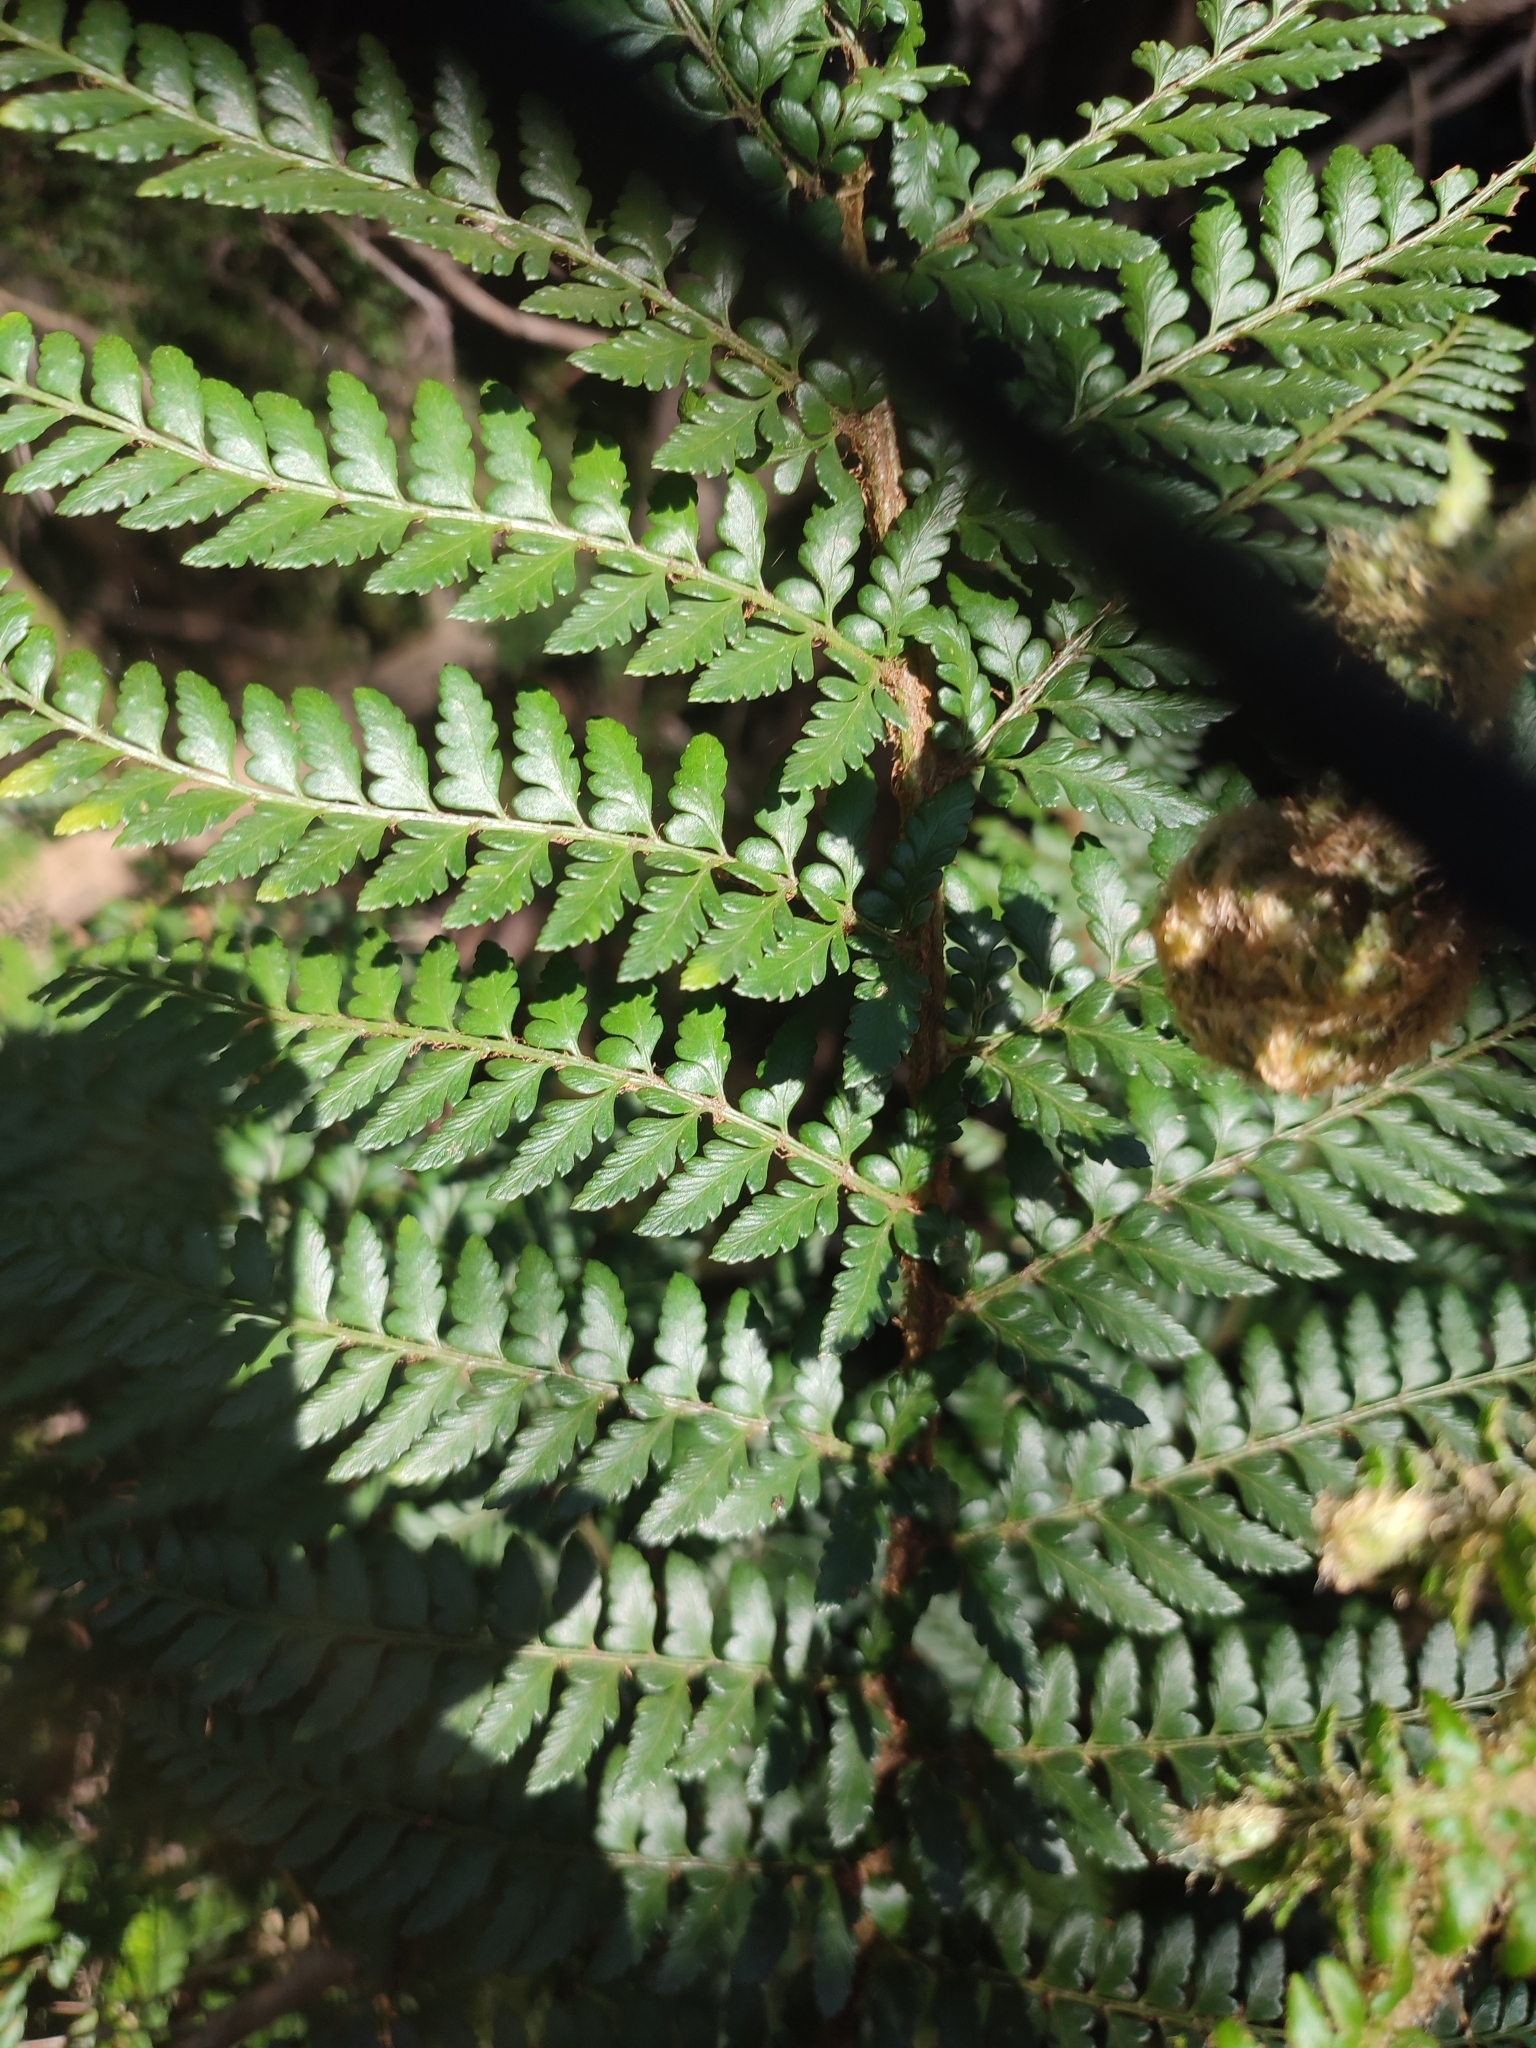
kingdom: Plantae
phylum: Tracheophyta
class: Polypodiopsida
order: Polypodiales
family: Dryopteridaceae
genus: Polystichum
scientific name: Polystichum proliferum
